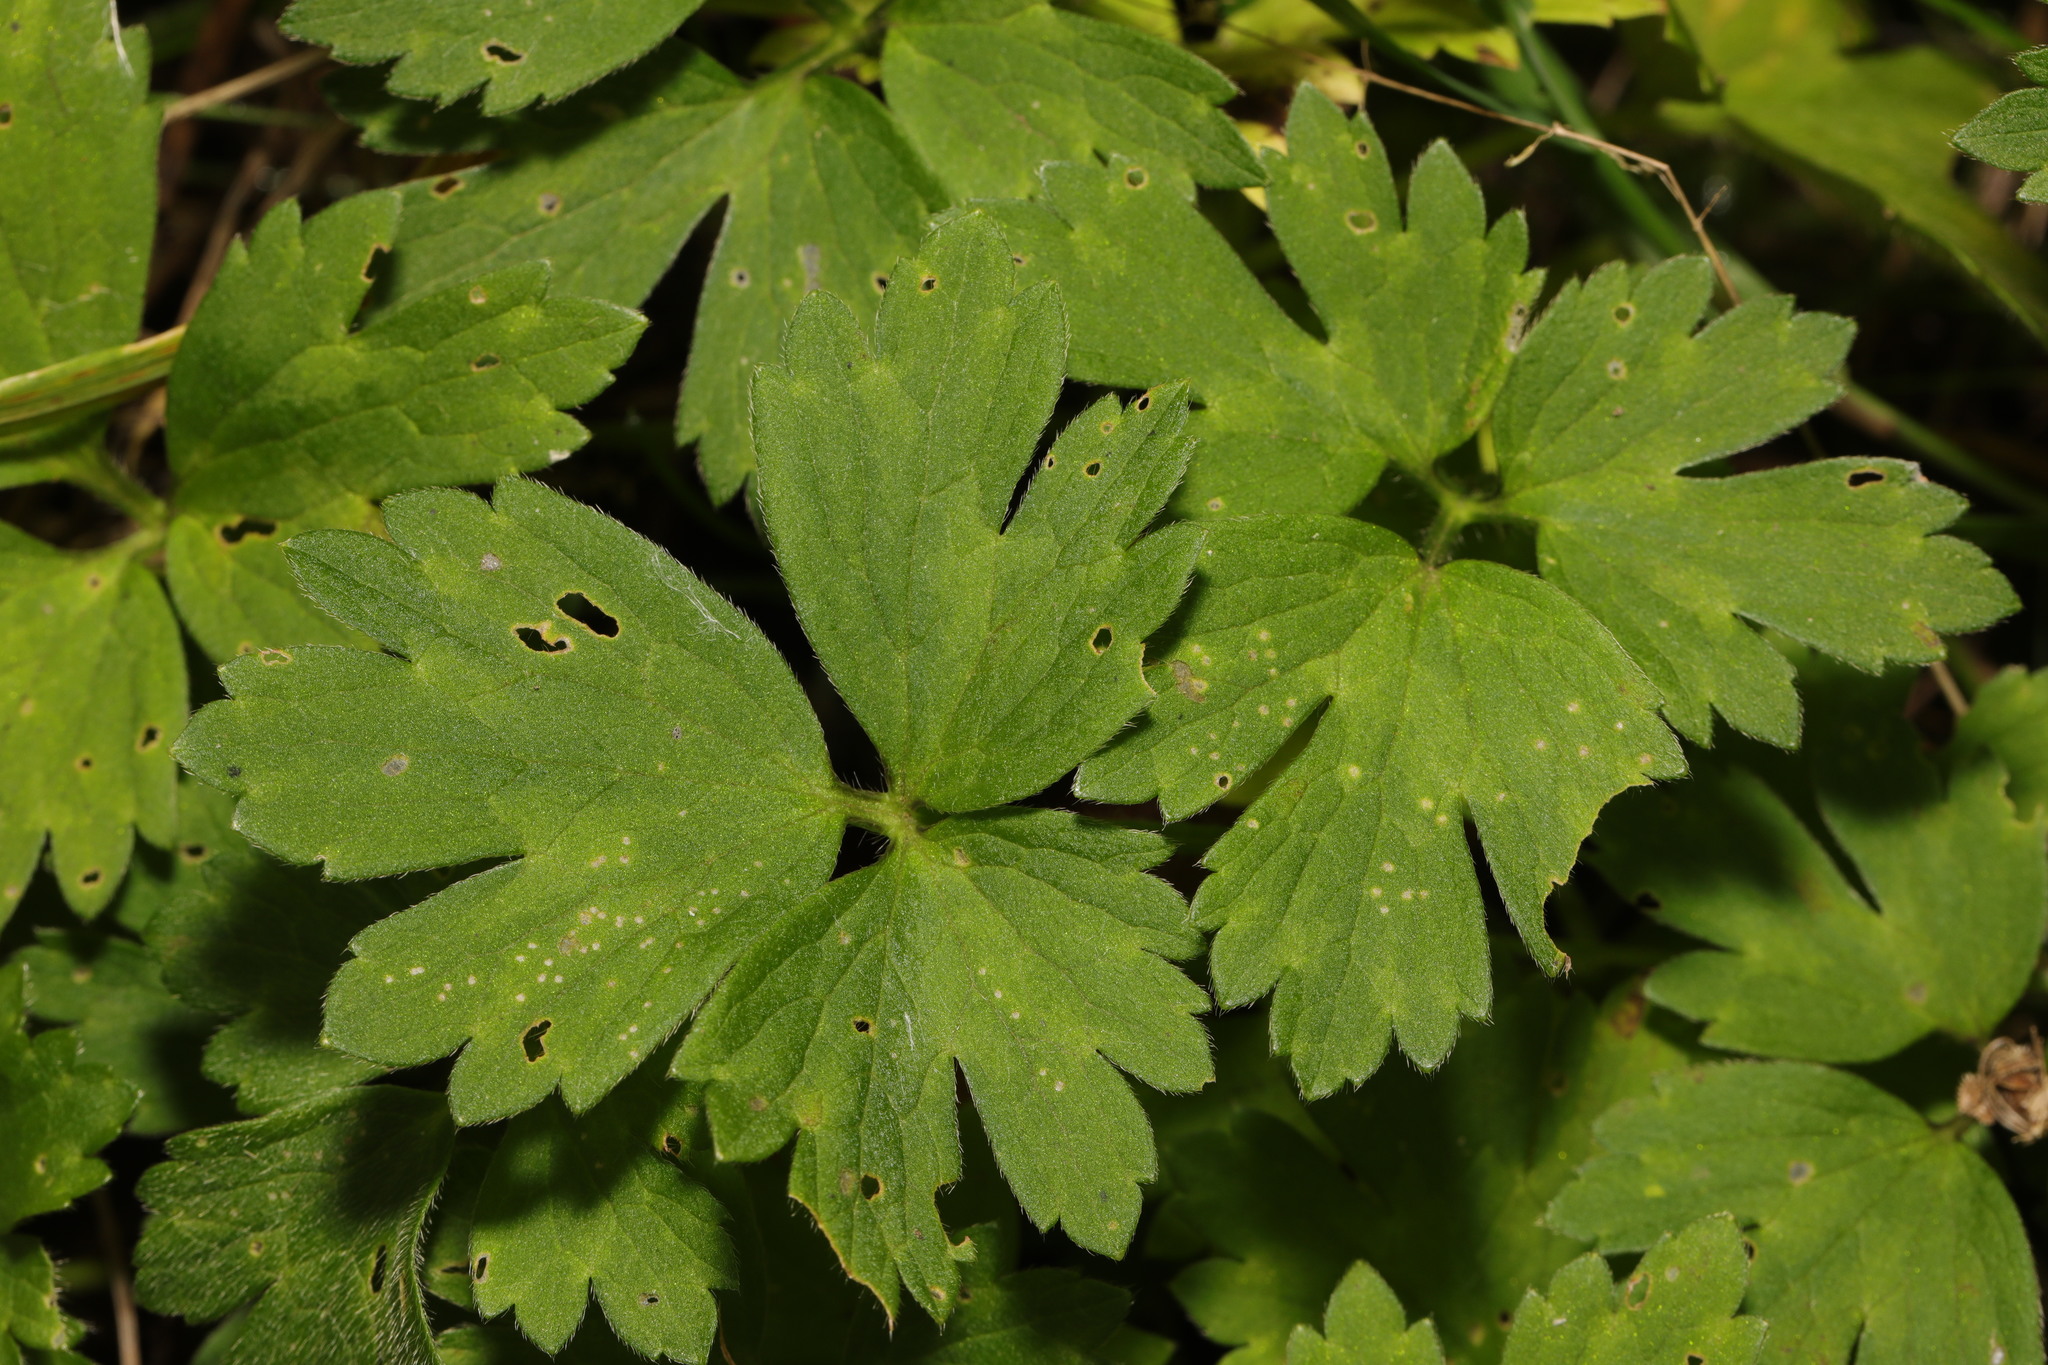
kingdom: Plantae
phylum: Tracheophyta
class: Magnoliopsida
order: Ranunculales
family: Ranunculaceae
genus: Ranunculus
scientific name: Ranunculus repens
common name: Creeping buttercup
